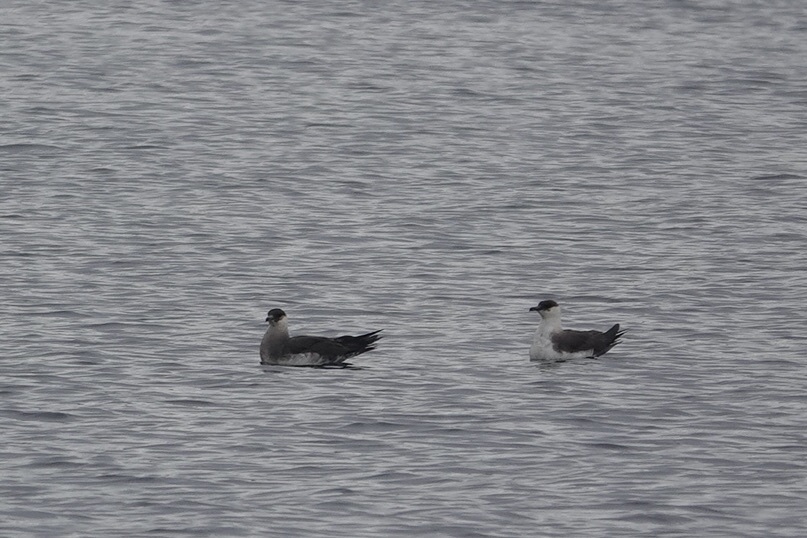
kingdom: Animalia
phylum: Chordata
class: Aves
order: Charadriiformes
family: Stercorariidae
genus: Stercorarius
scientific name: Stercorarius parasiticus
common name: Parasitic jaeger
